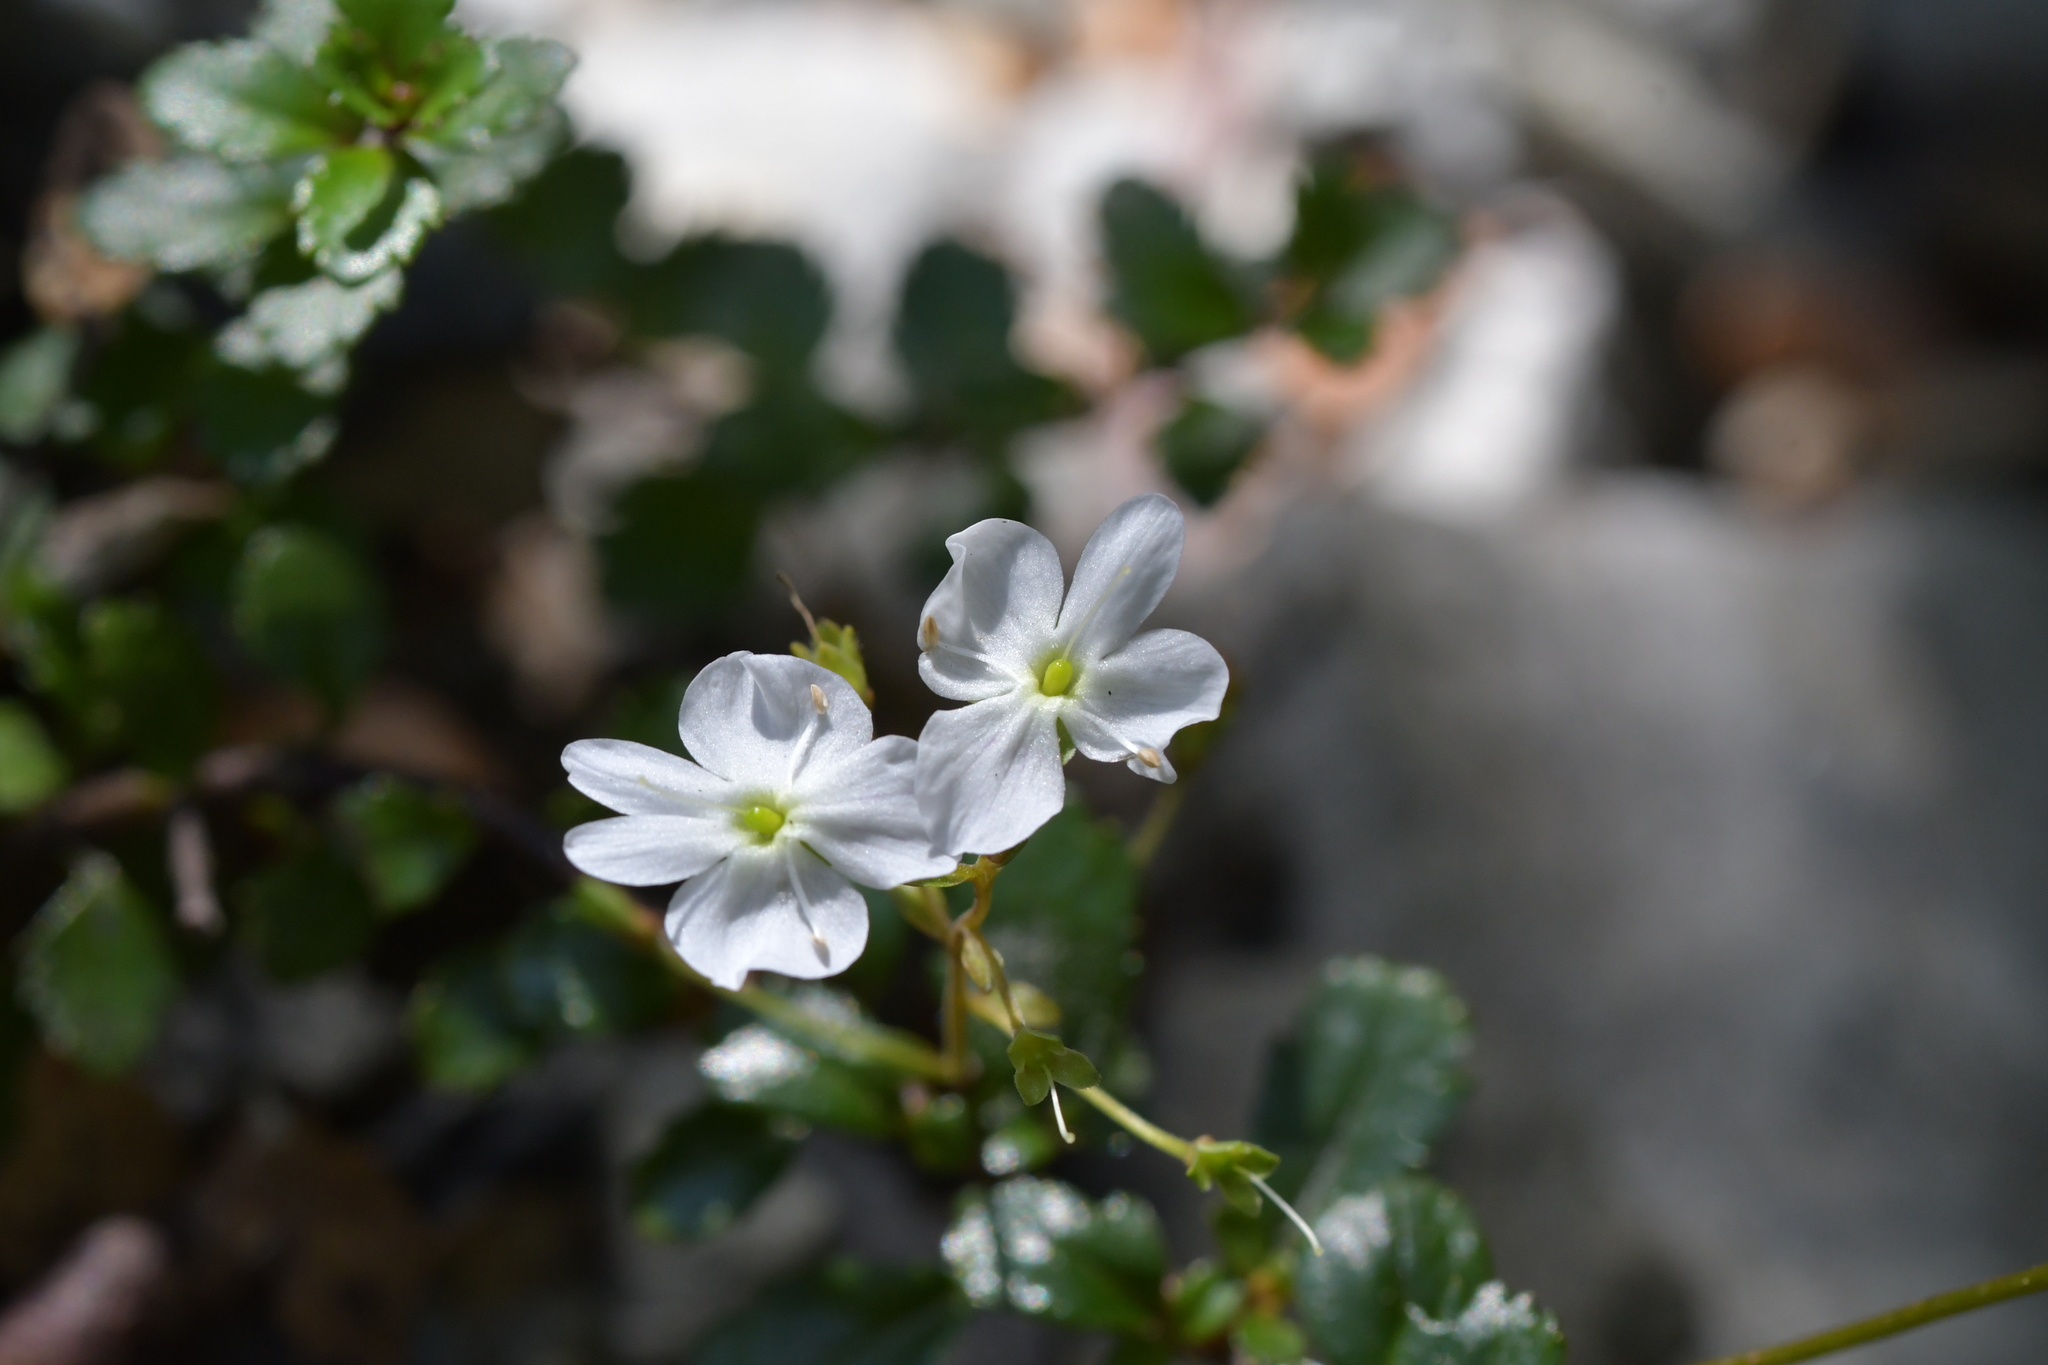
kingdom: Plantae
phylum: Tracheophyta
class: Magnoliopsida
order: Lamiales
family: Plantaginaceae
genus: Veronica
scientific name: Veronica lyallii
